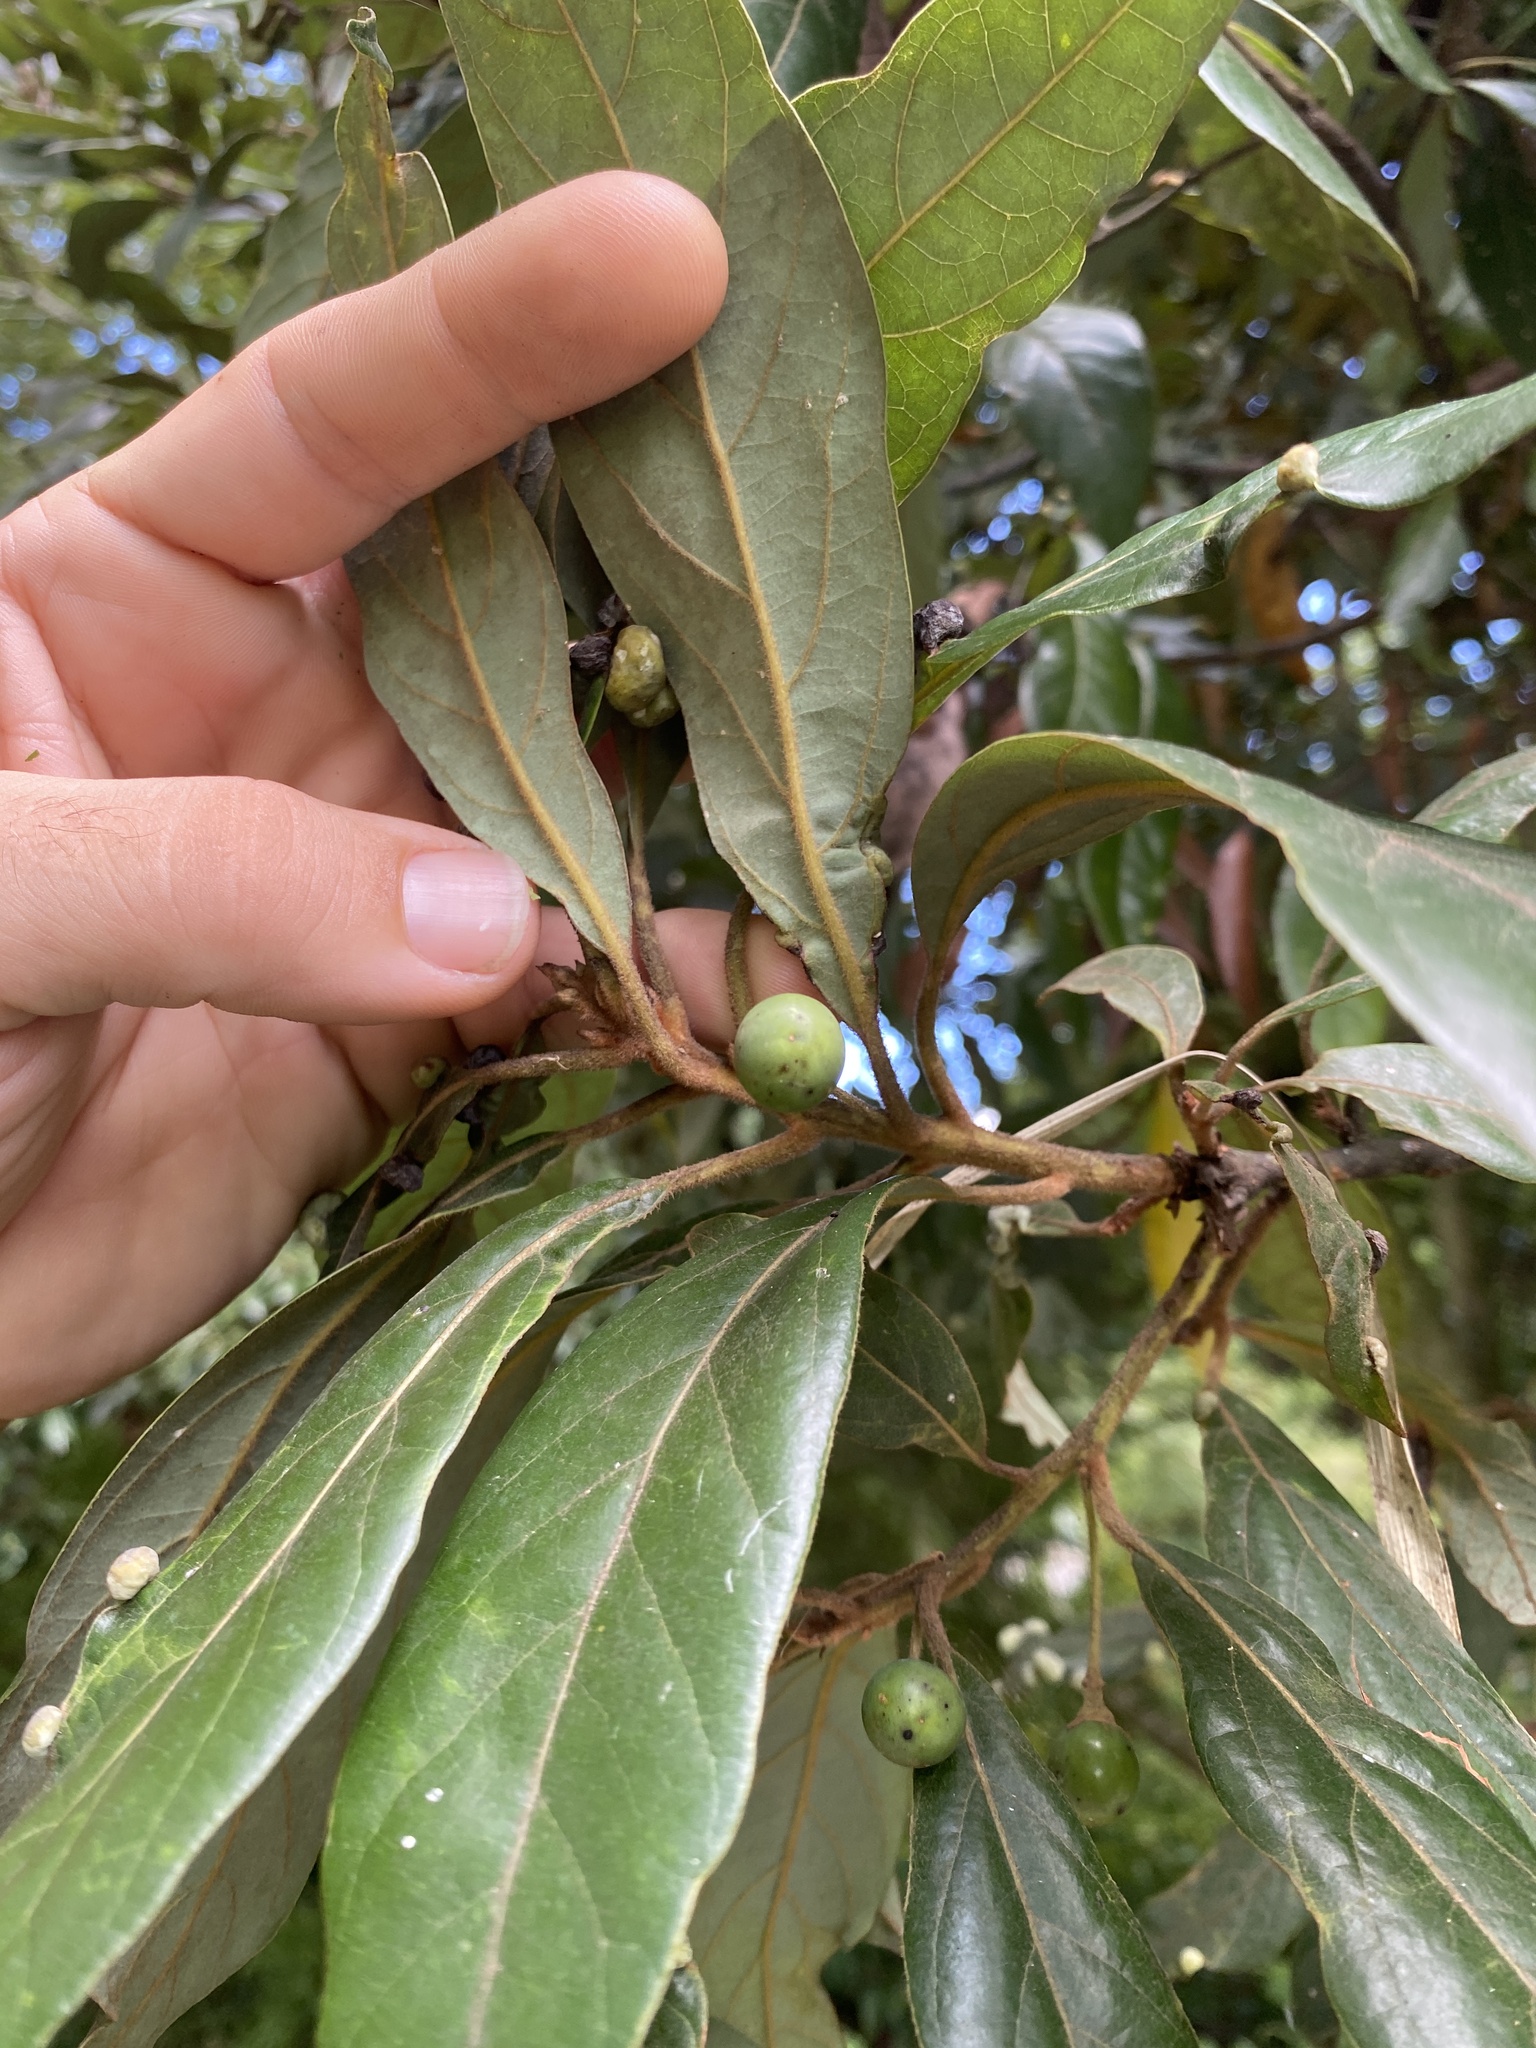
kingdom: Plantae
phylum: Tracheophyta
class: Magnoliopsida
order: Laurales
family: Lauraceae
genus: Persea
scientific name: Persea palustris
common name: Swampbay
